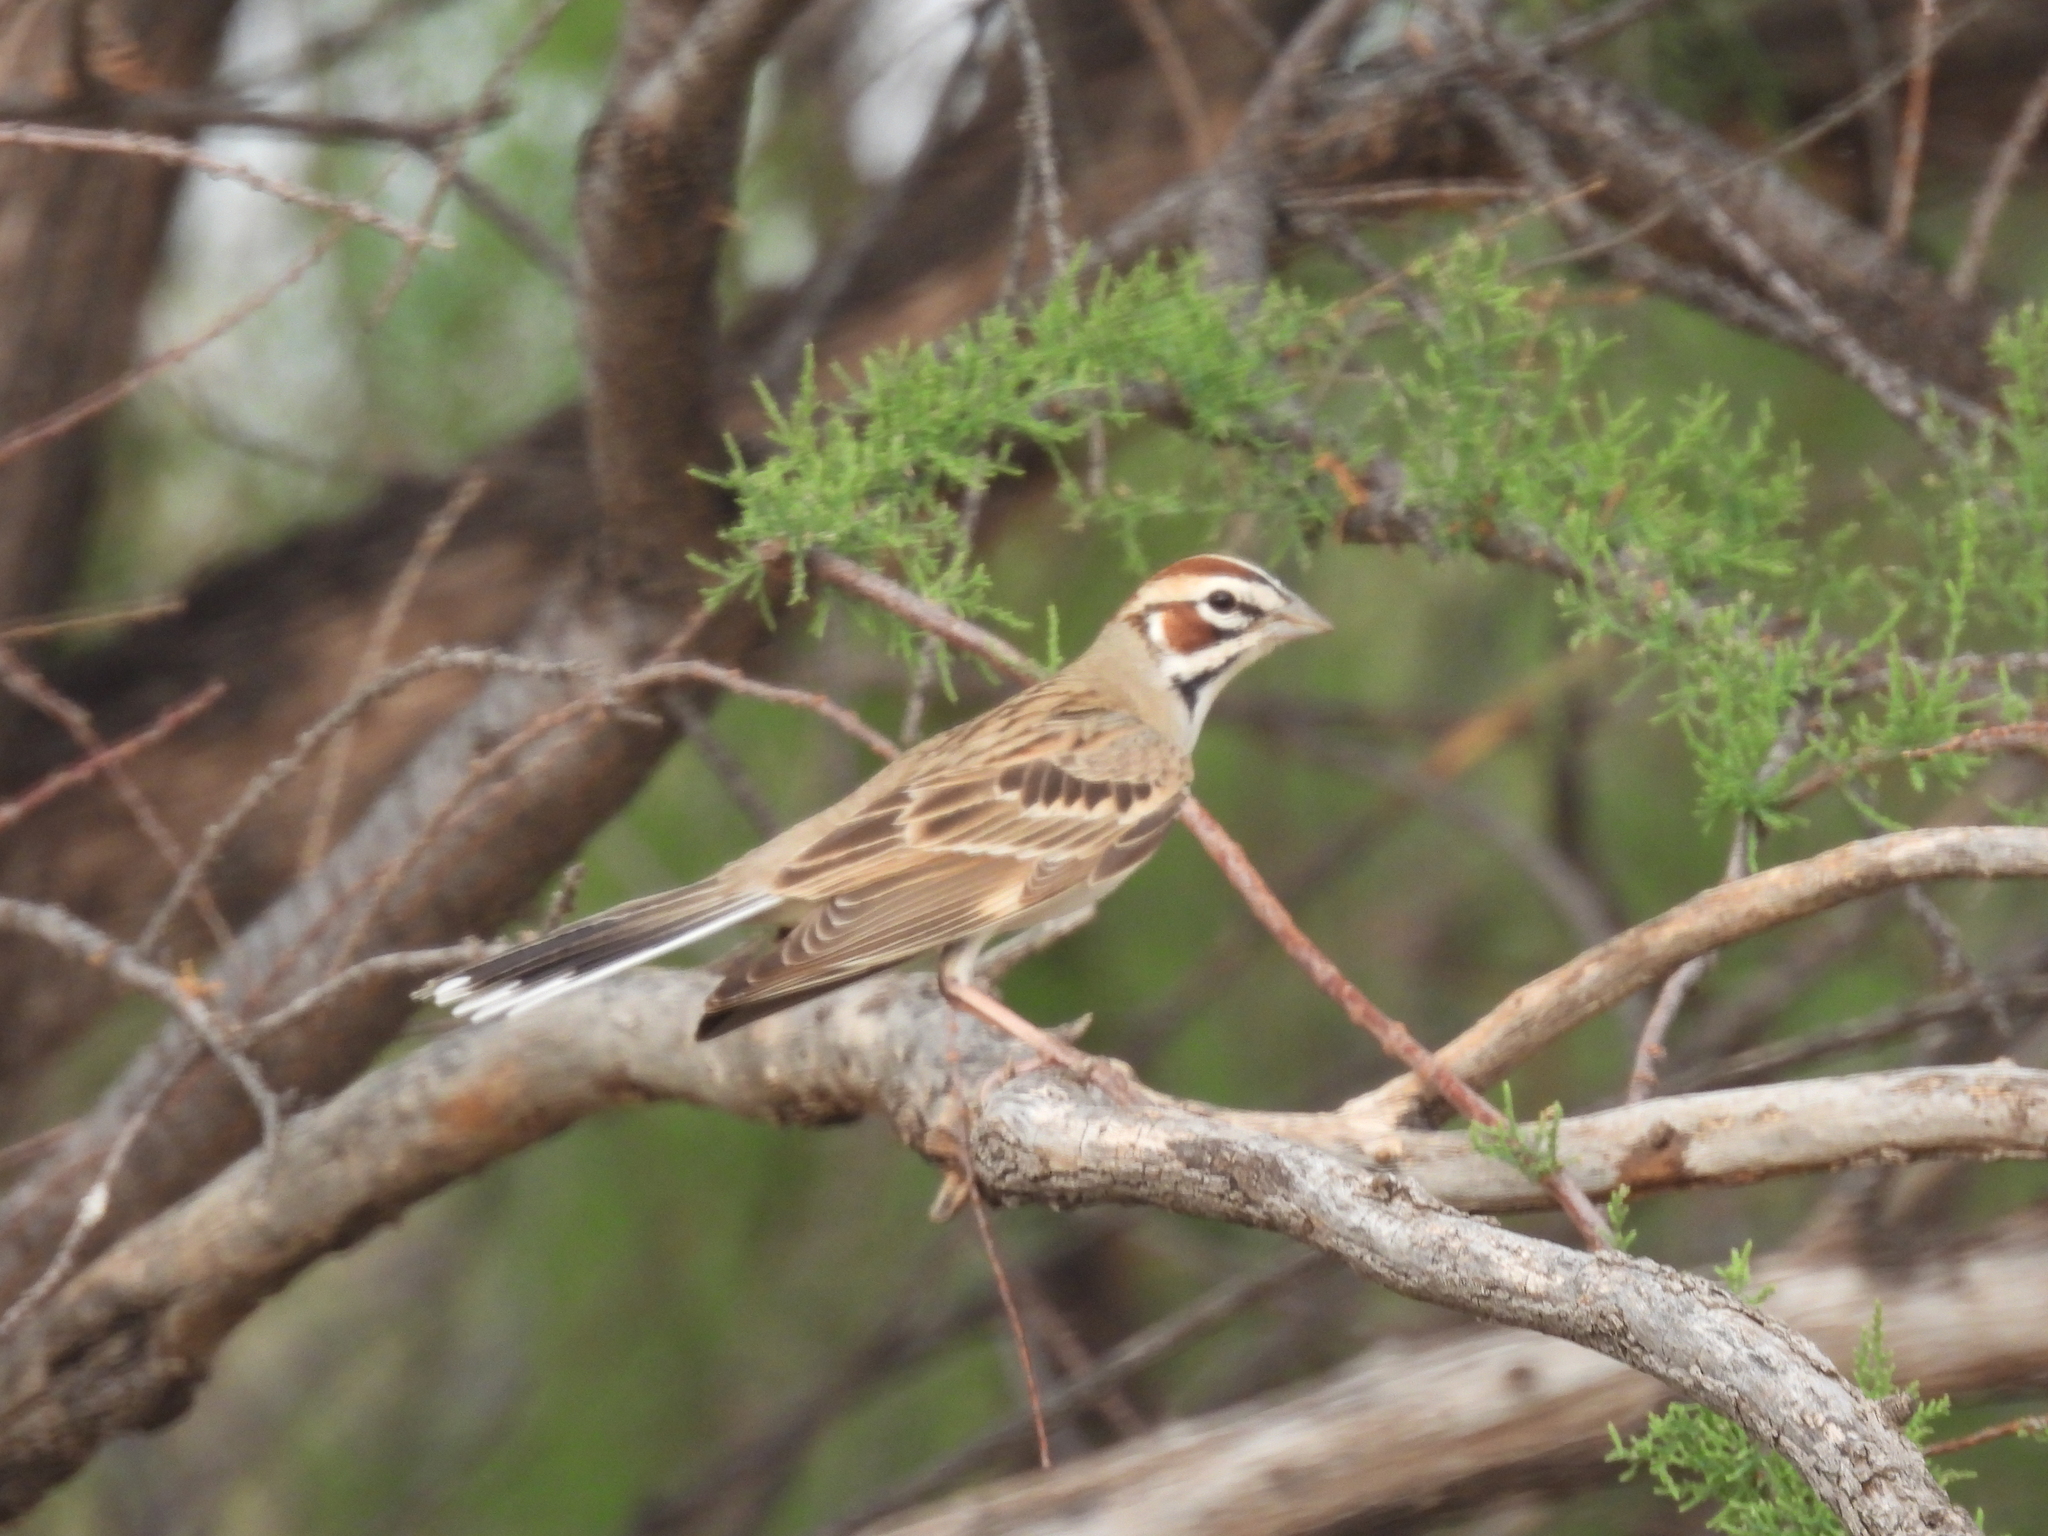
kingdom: Animalia
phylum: Chordata
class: Aves
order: Passeriformes
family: Passerellidae
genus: Chondestes
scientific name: Chondestes grammacus
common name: Lark sparrow
